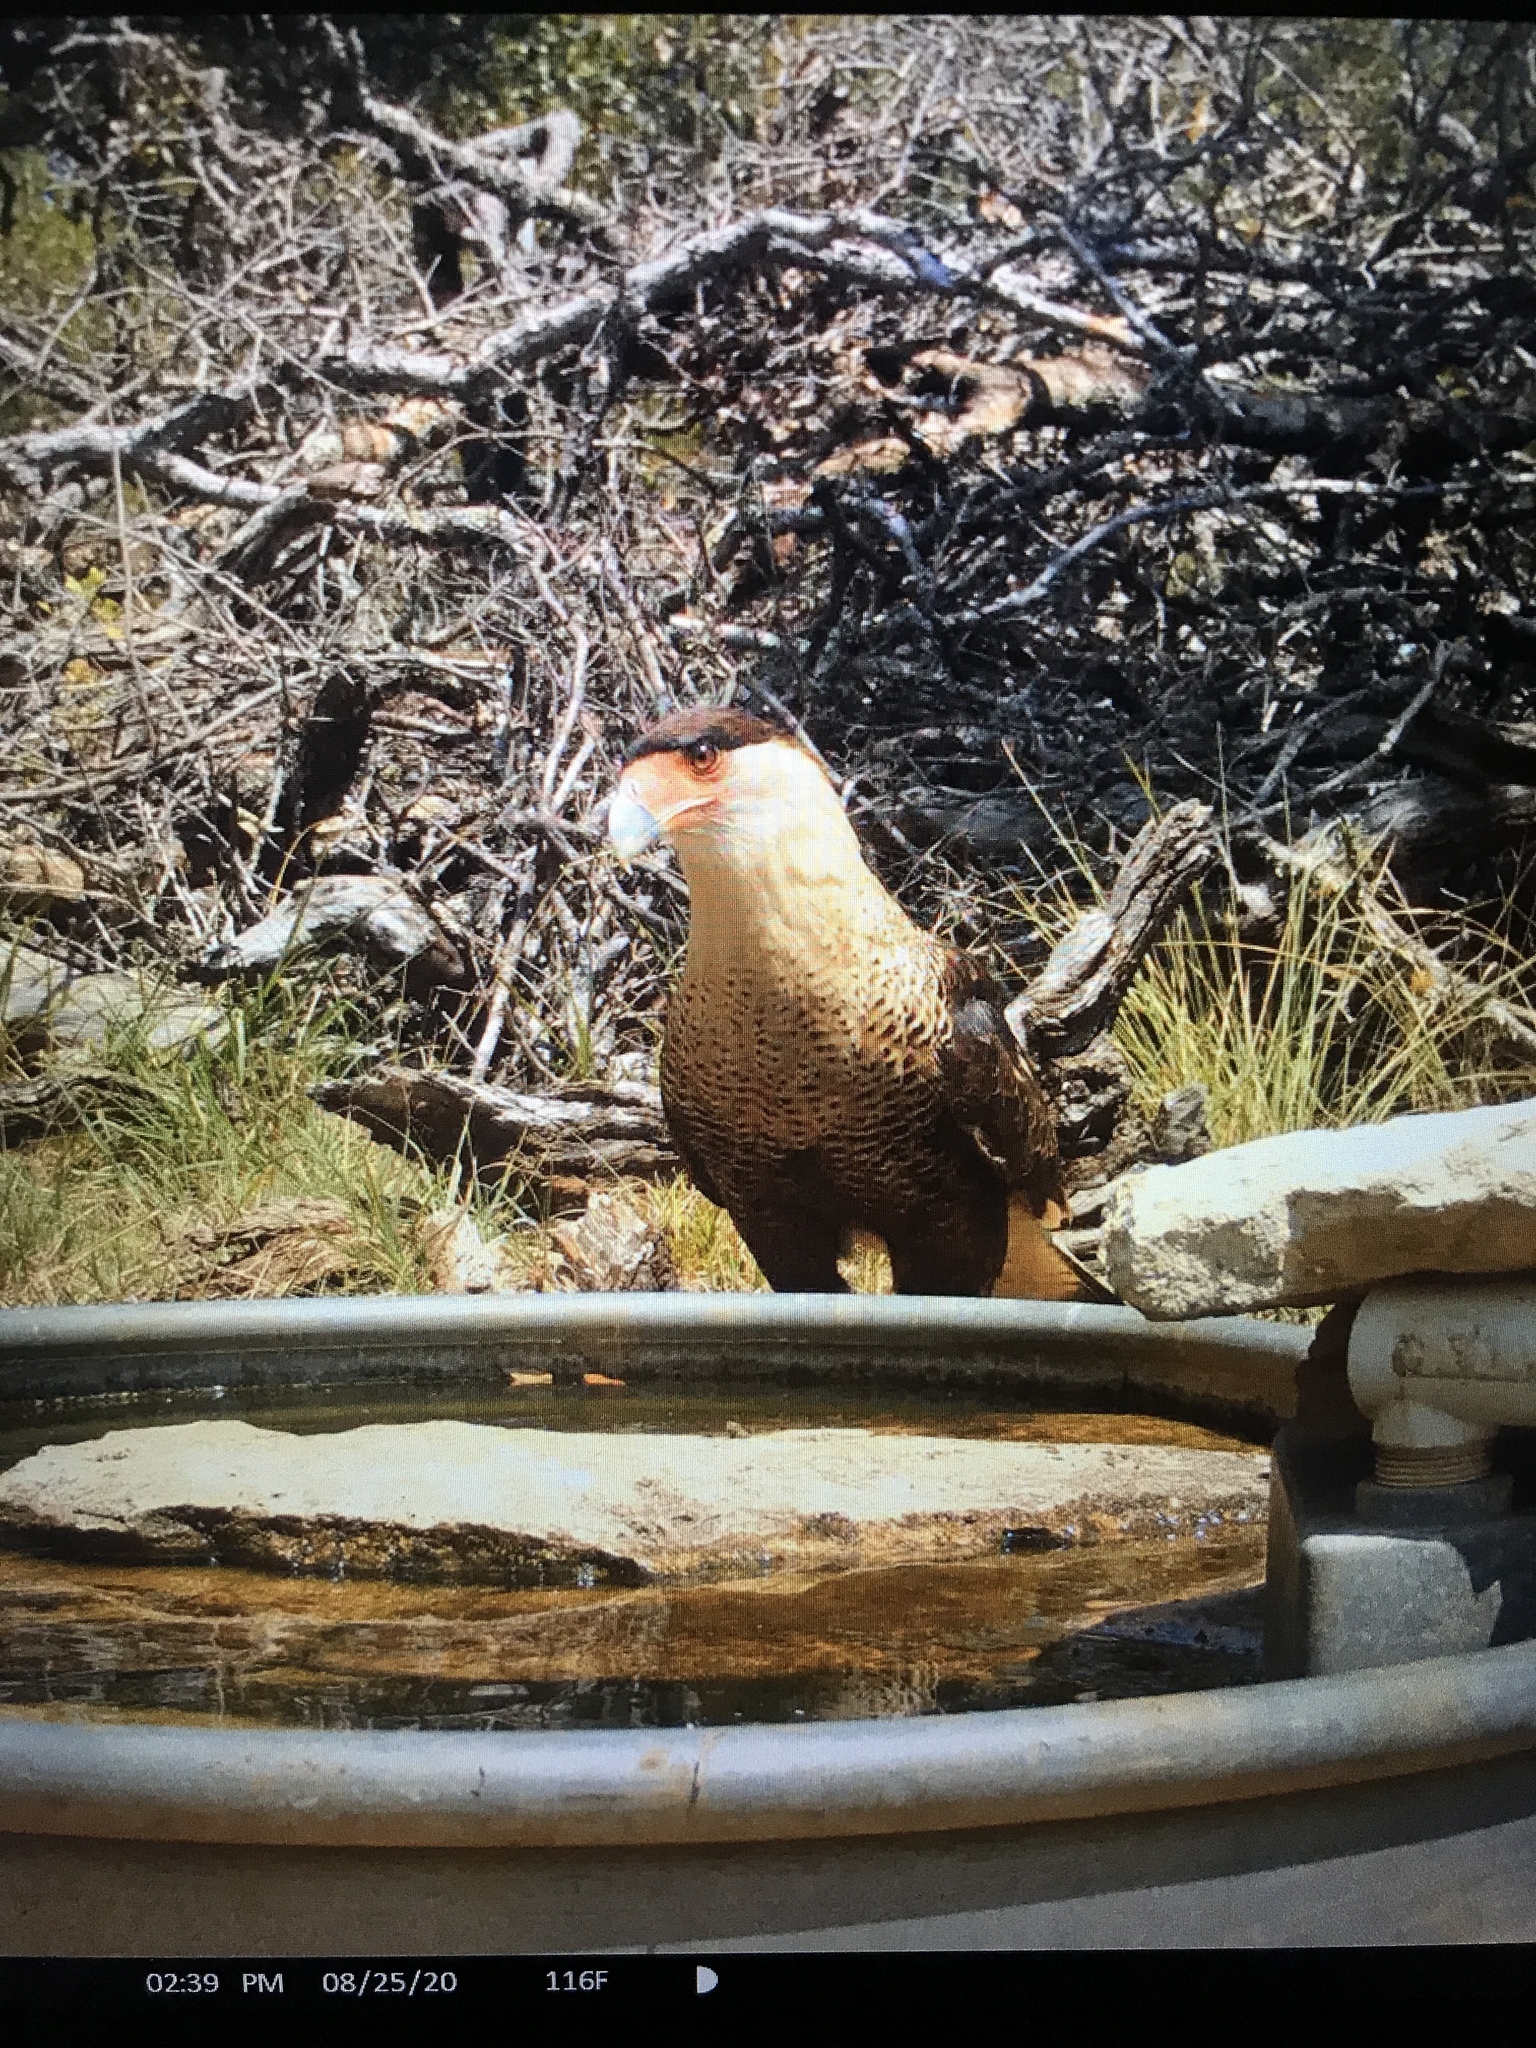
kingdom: Animalia
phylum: Chordata
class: Aves
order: Falconiformes
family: Falconidae
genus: Caracara
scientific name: Caracara plancus
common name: Southern caracara
